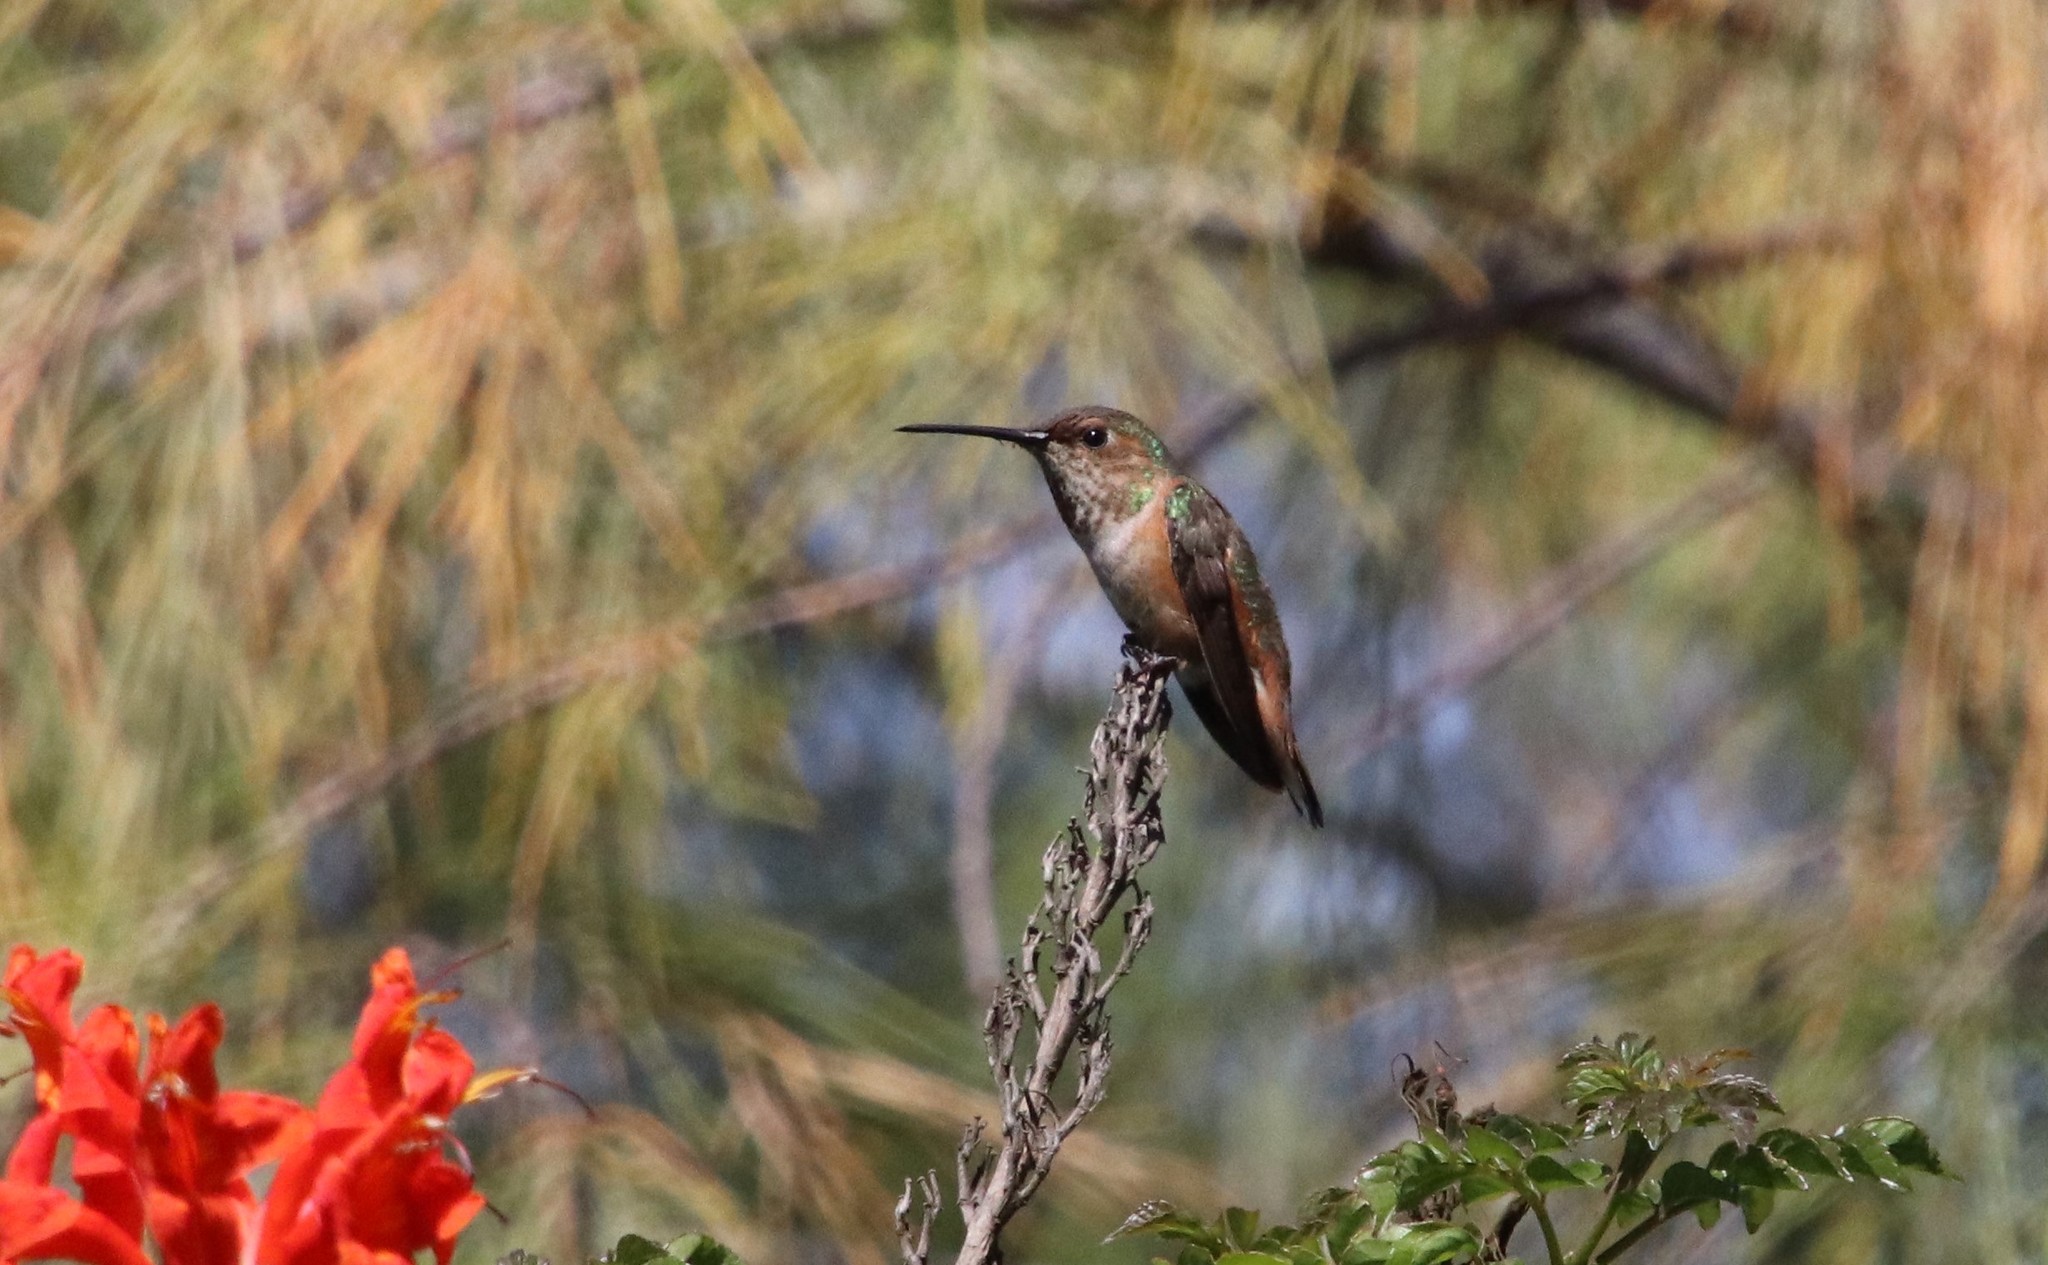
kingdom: Animalia
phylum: Chordata
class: Aves
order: Apodiformes
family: Trochilidae
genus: Selasphorus
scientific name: Selasphorus
